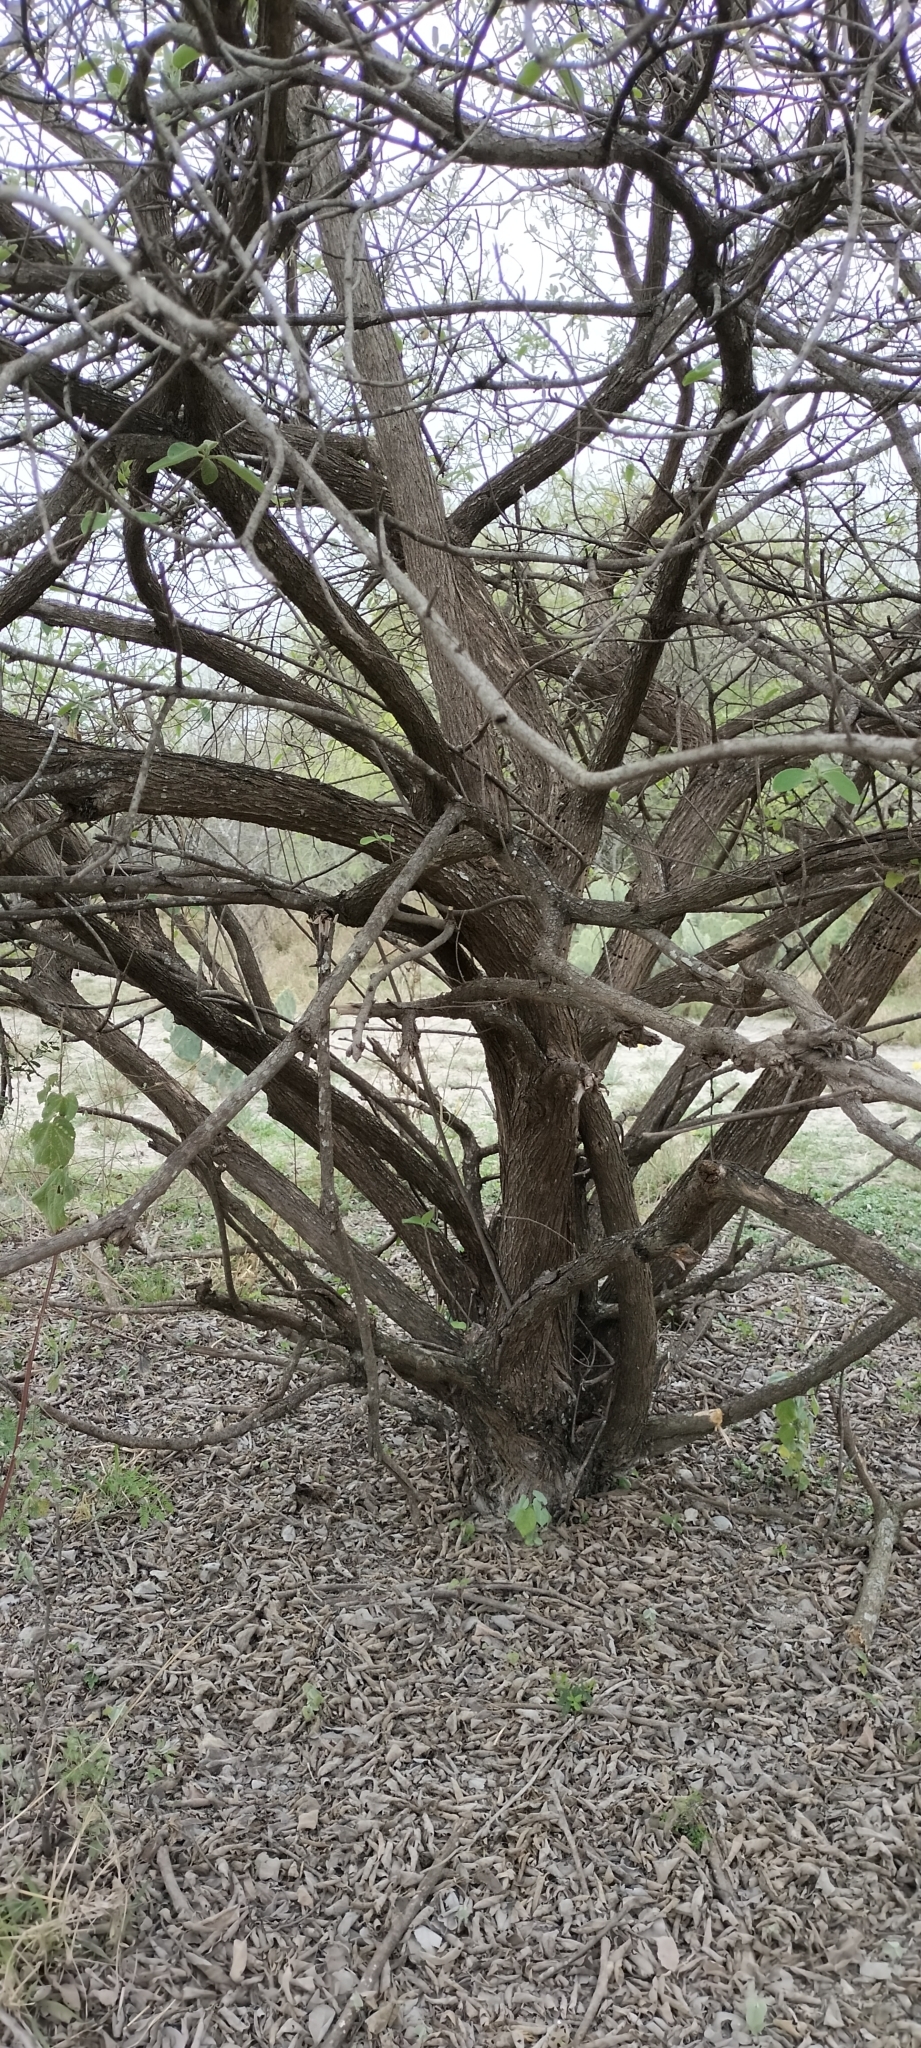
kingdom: Plantae
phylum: Tracheophyta
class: Magnoliopsida
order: Boraginales
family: Cordiaceae
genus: Cordia
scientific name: Cordia boissieri
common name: Mexican-olive
